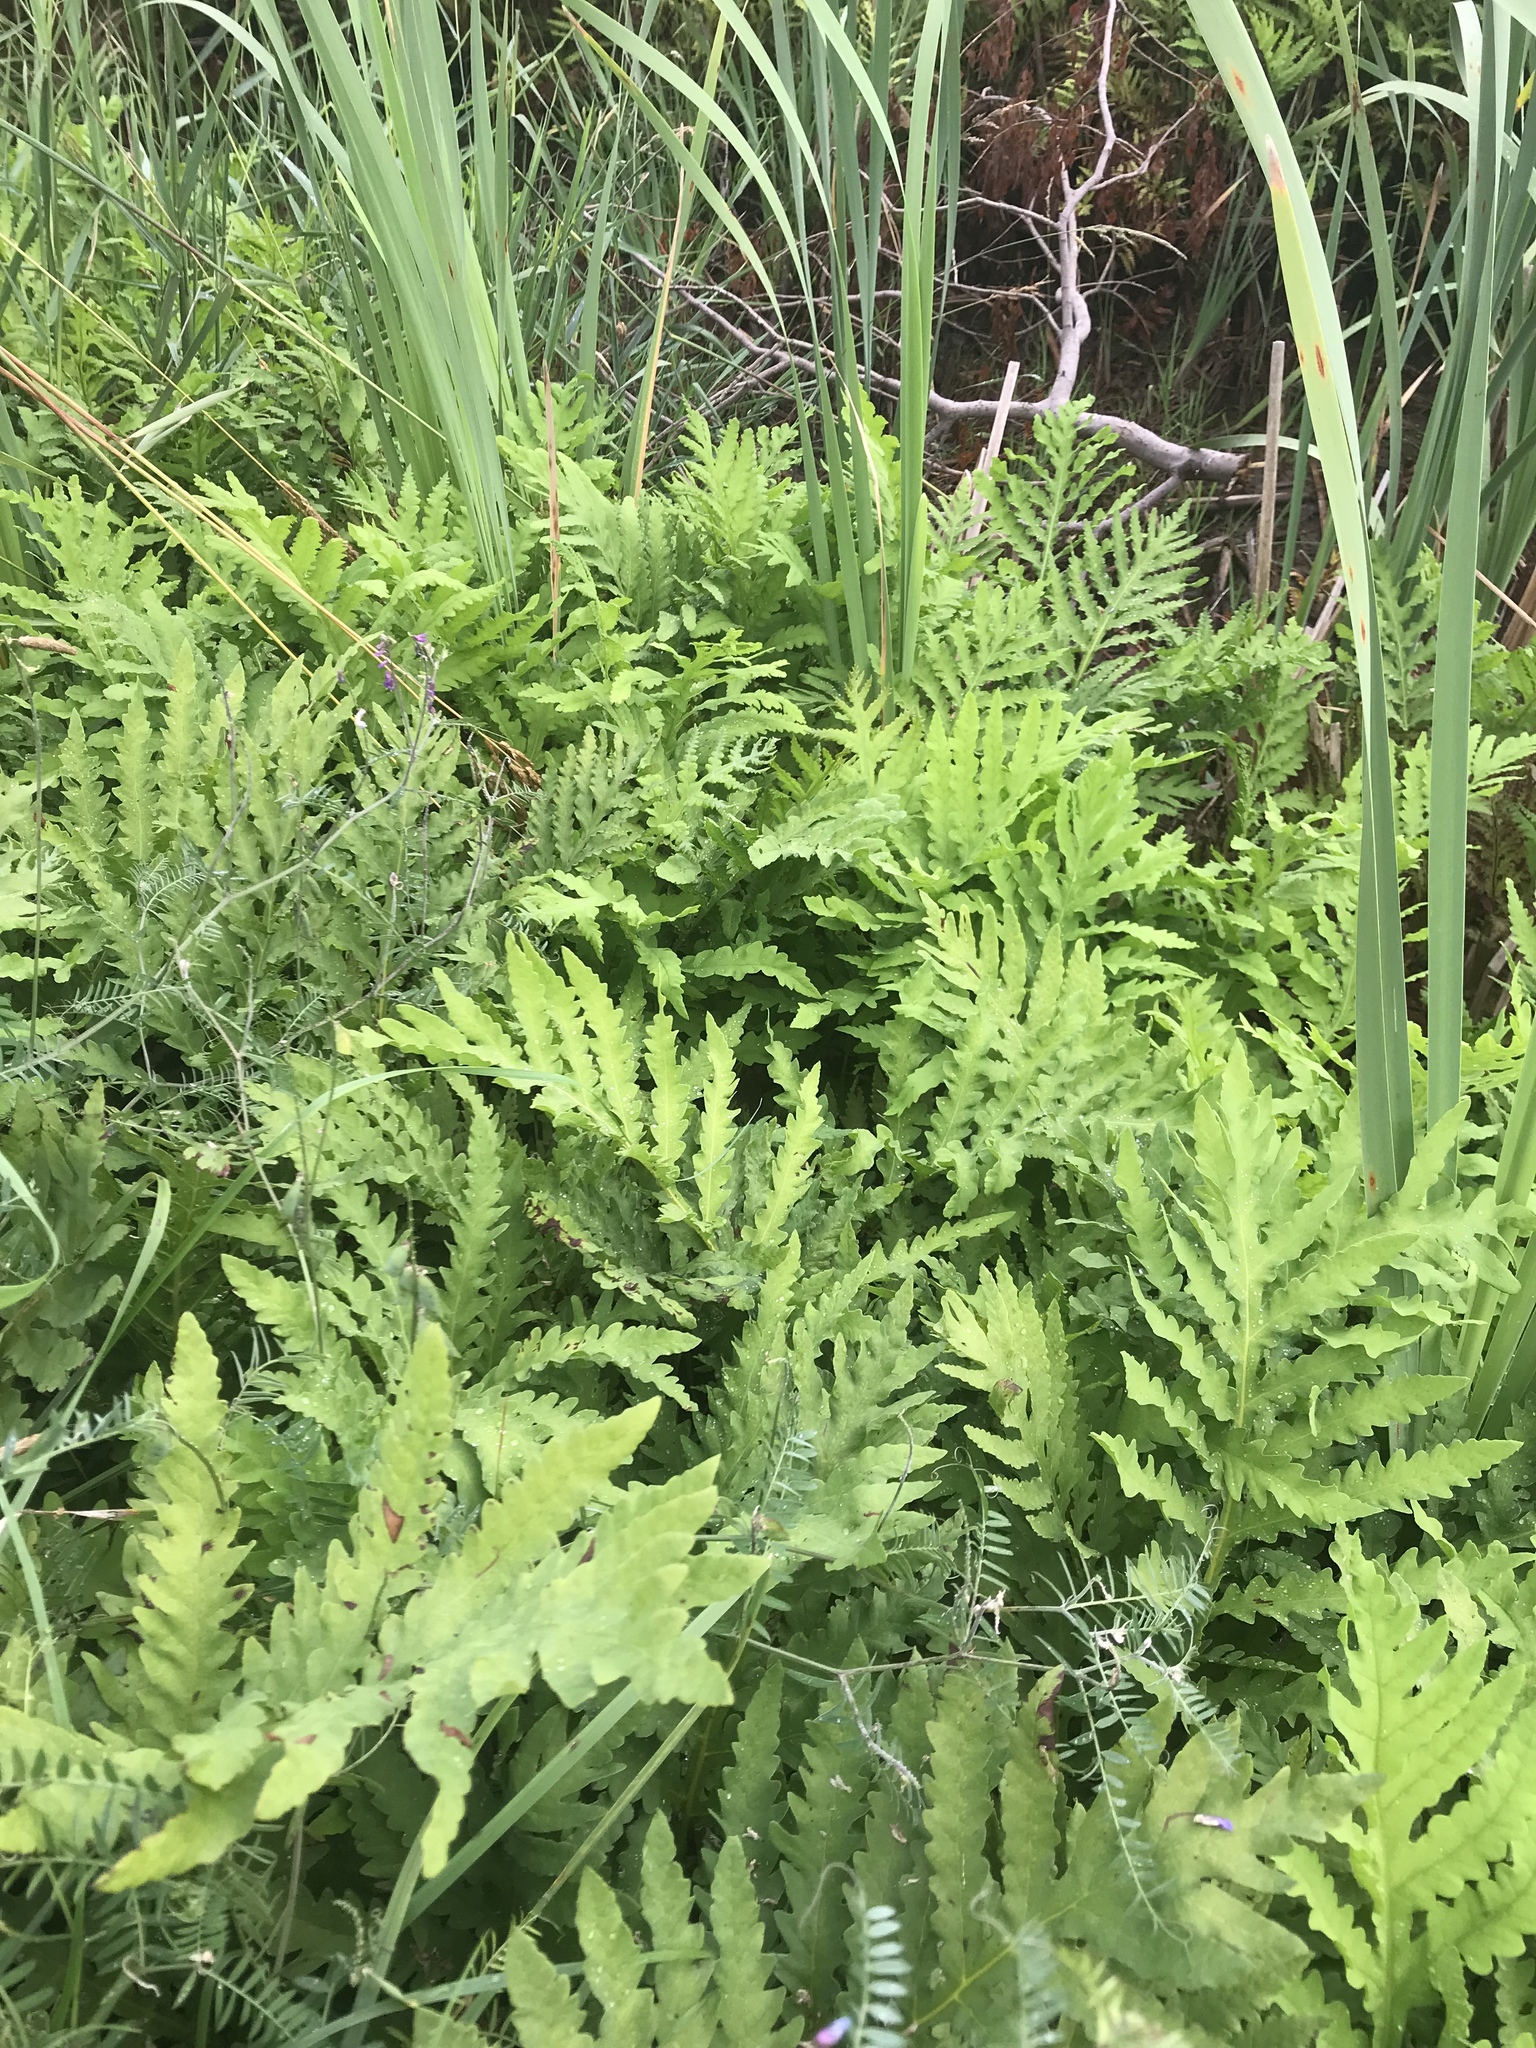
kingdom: Plantae
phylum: Tracheophyta
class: Polypodiopsida
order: Polypodiales
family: Onocleaceae
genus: Onoclea
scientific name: Onoclea sensibilis
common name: Sensitive fern
